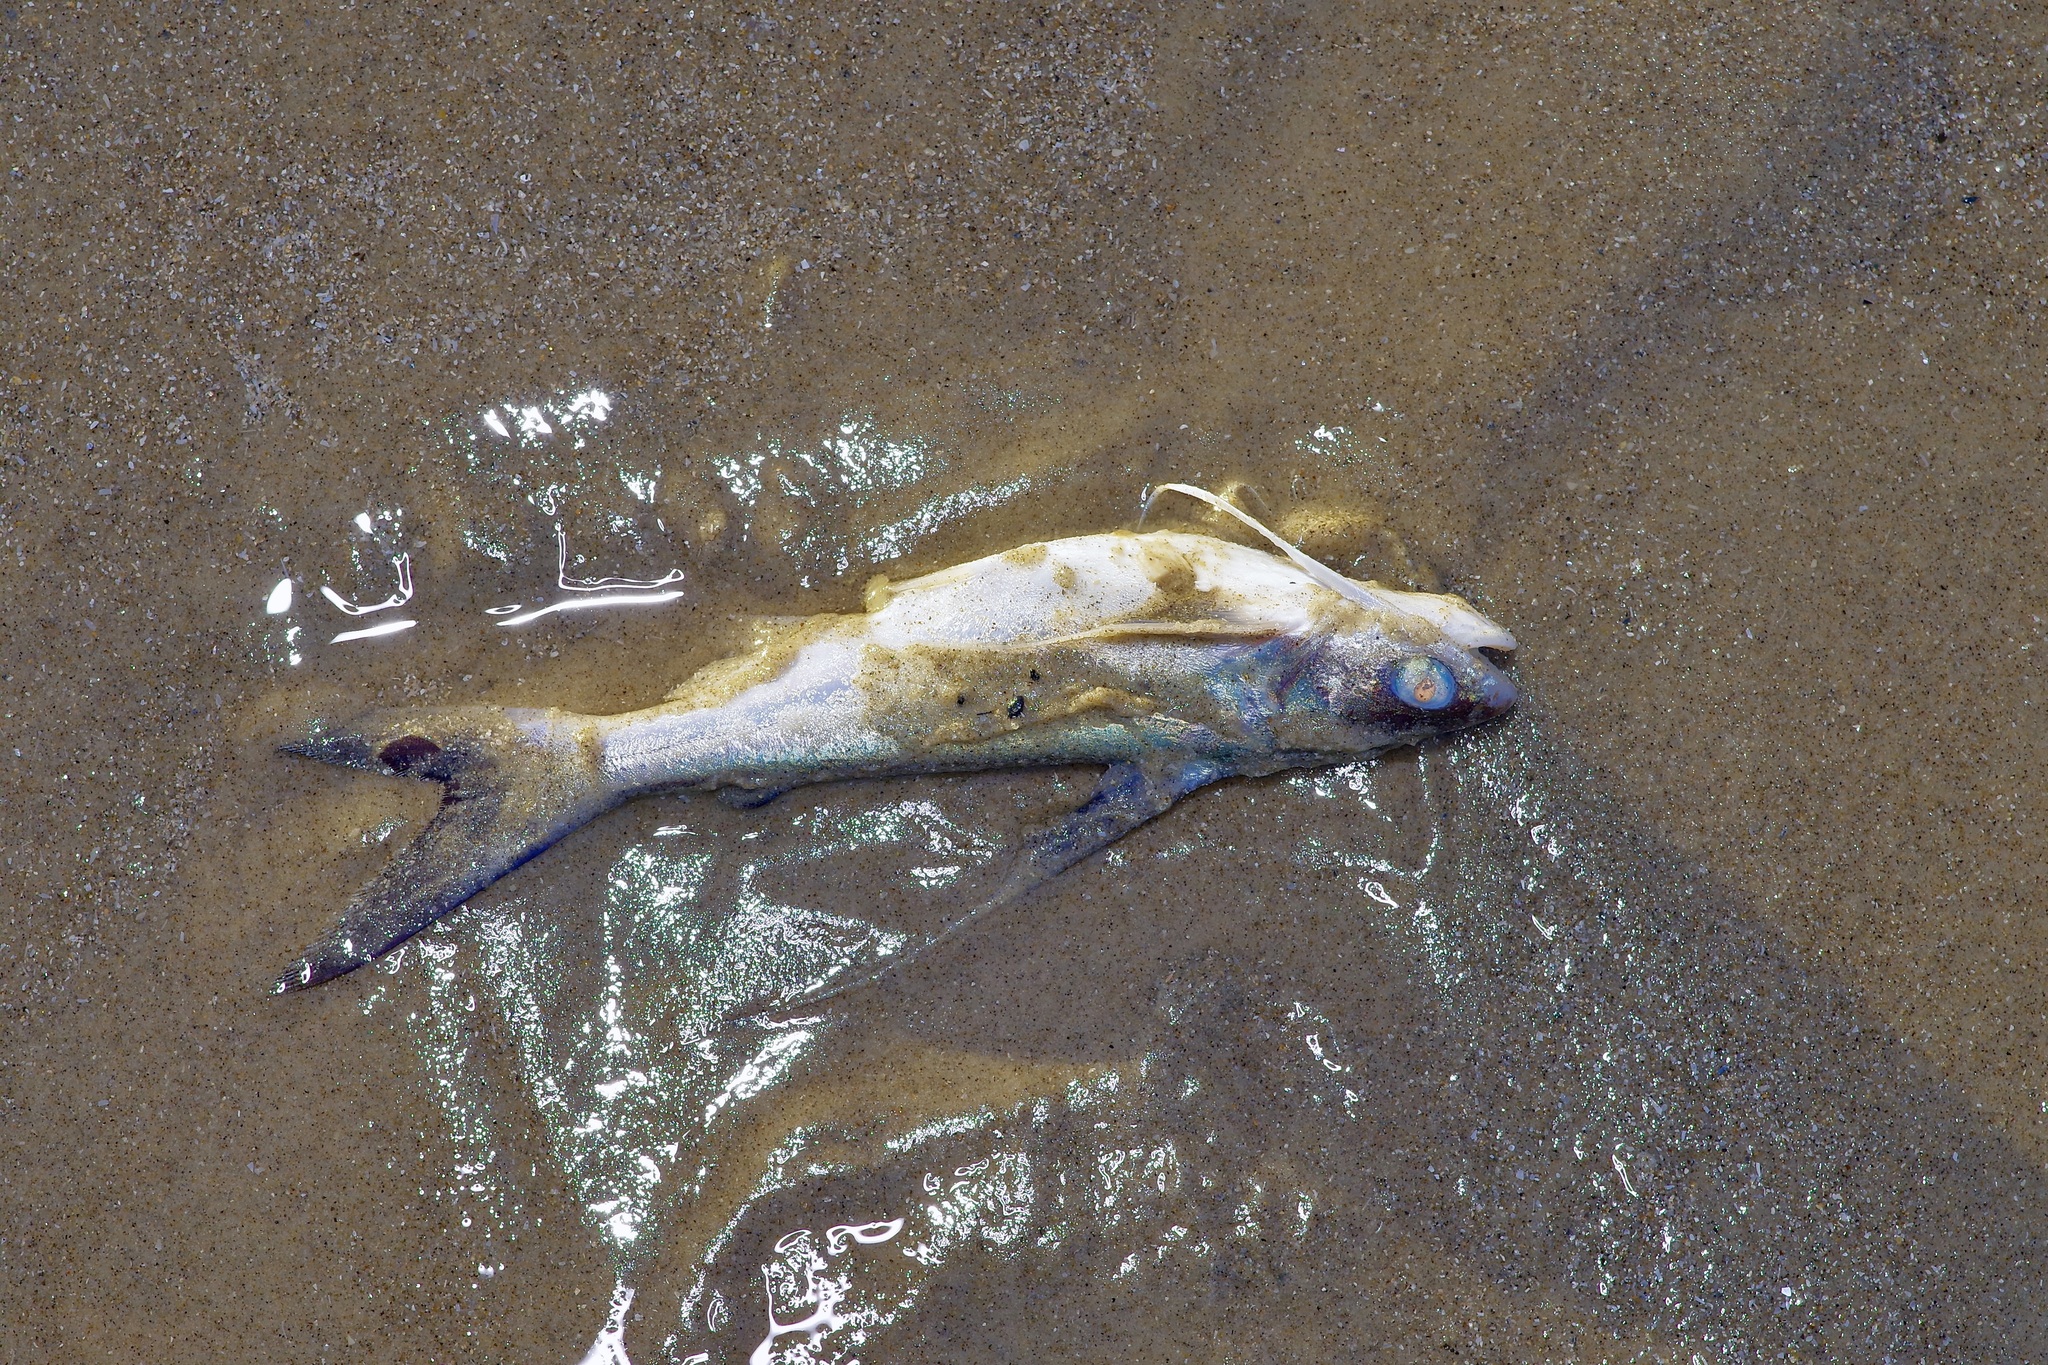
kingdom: Animalia
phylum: Chordata
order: Siluriformes
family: Ariidae
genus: Bagre
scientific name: Bagre marinus
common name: Gafftopsail sea catfish
